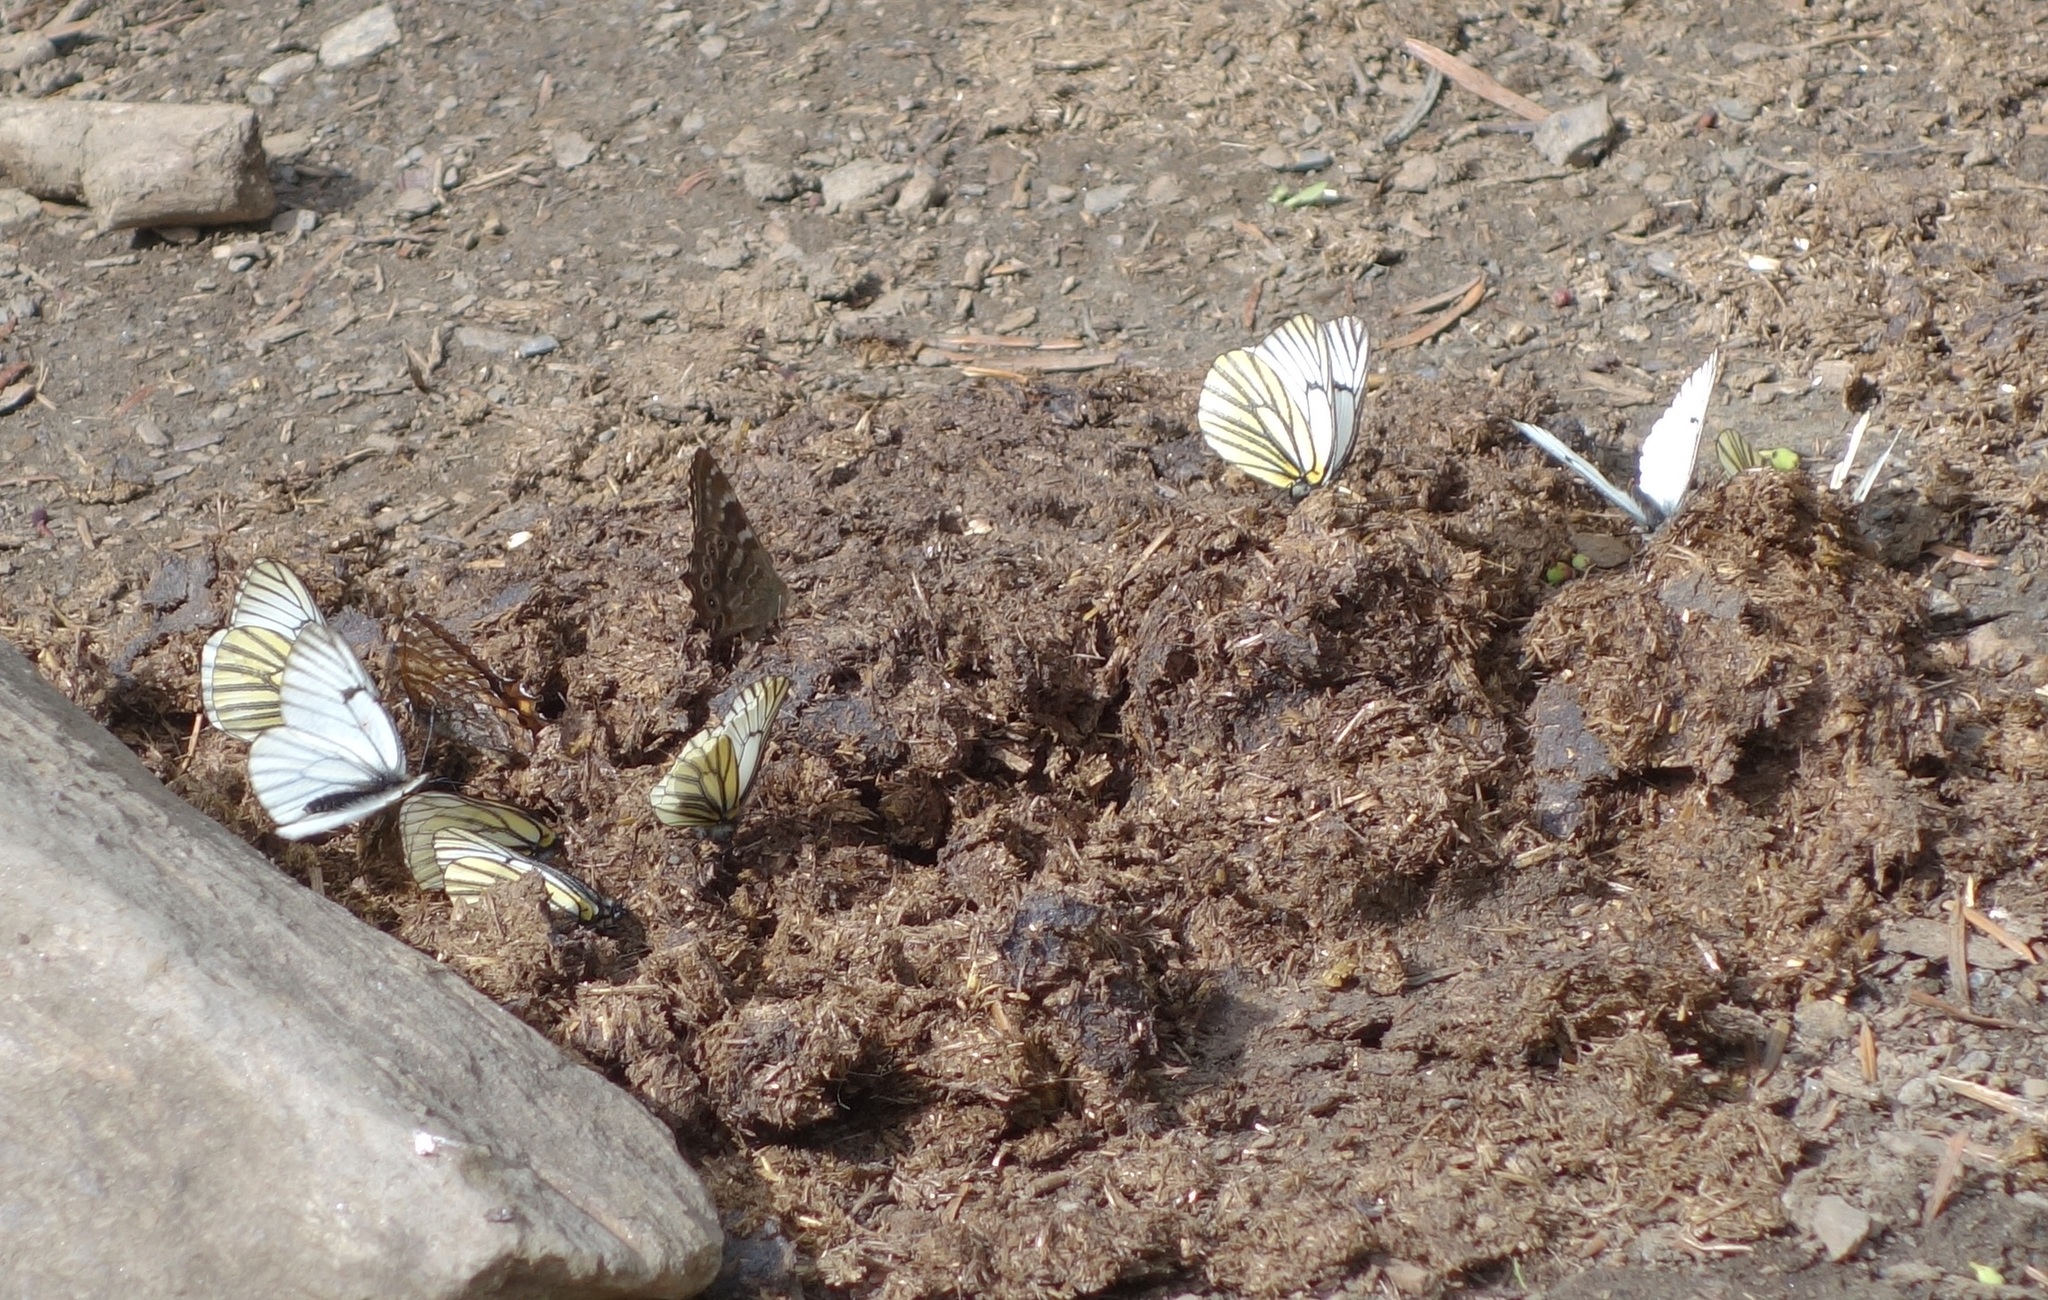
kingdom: Animalia
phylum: Arthropoda
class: Insecta
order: Lepidoptera
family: Pieridae
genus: Aporia
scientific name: Aporia martineti
